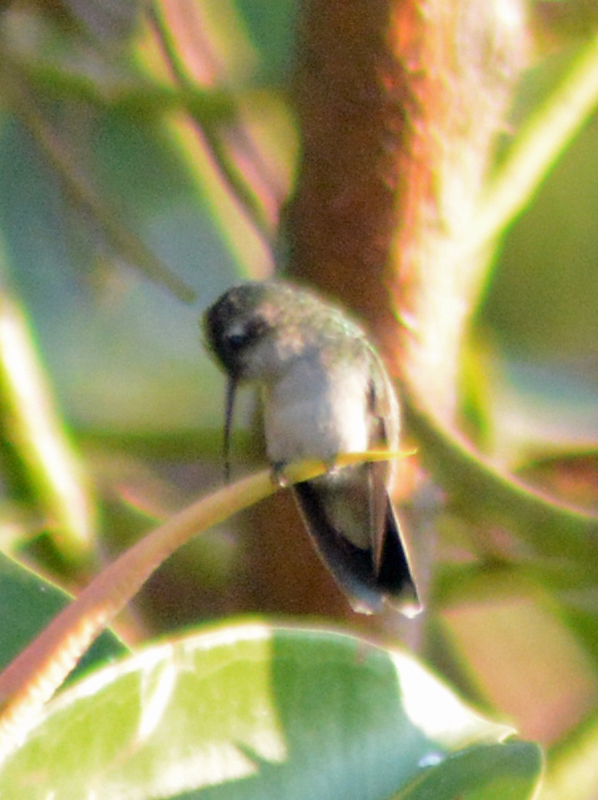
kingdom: Animalia
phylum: Chordata
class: Aves
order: Apodiformes
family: Trochilidae
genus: Cynanthus
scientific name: Cynanthus latirostris
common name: Broad-billed hummingbird
